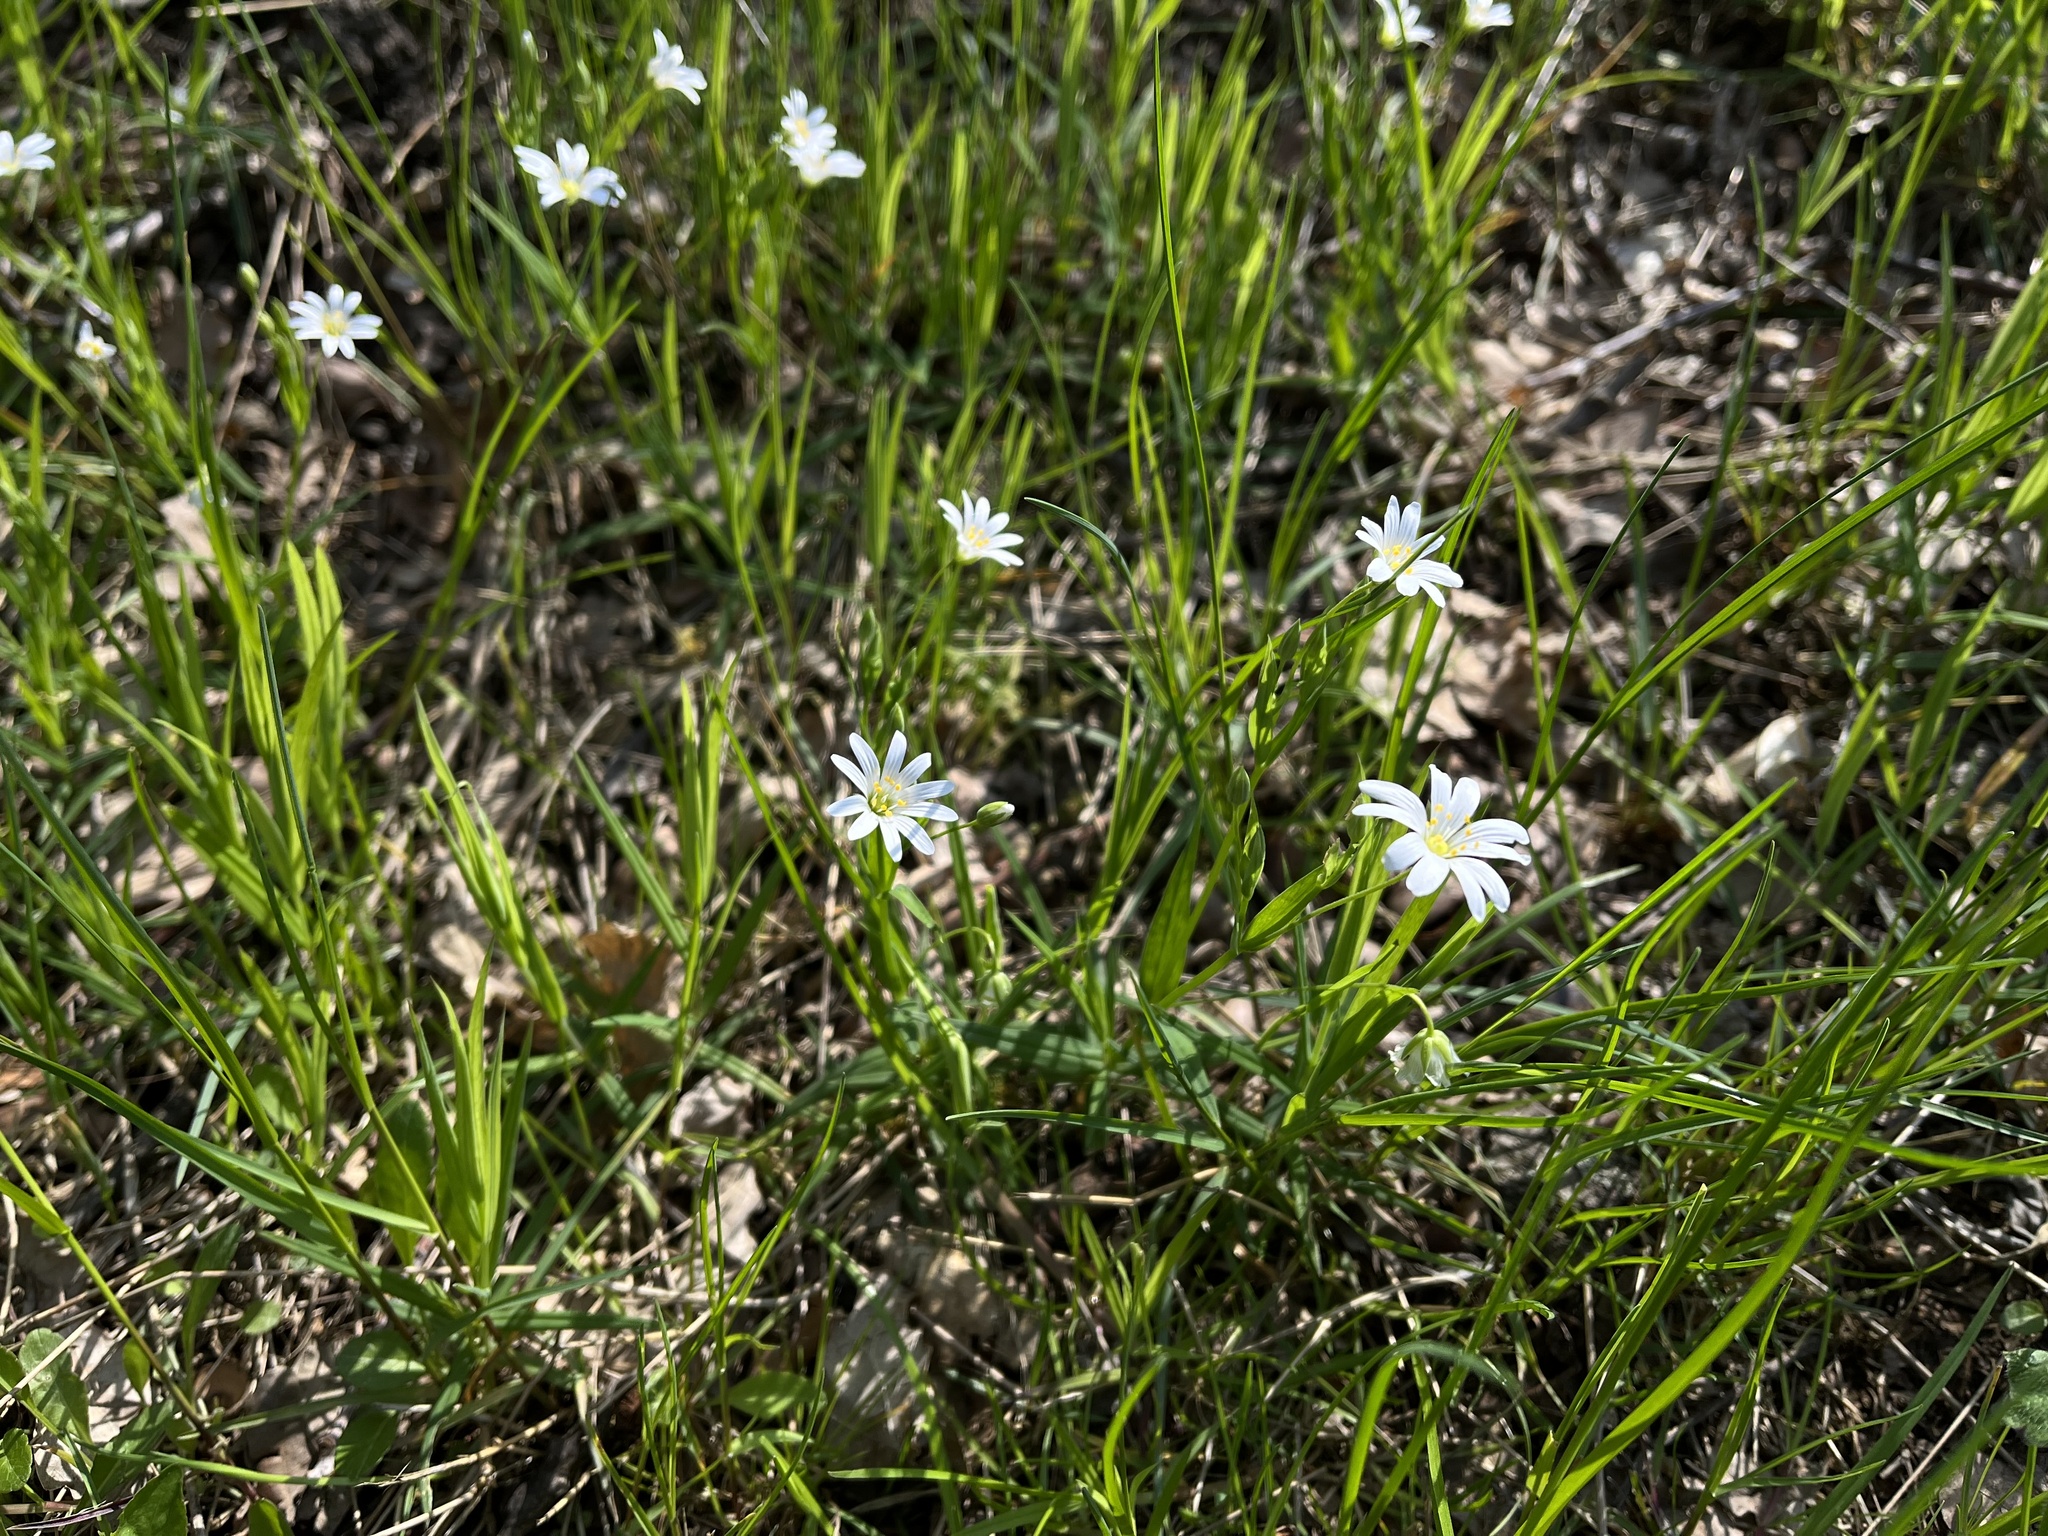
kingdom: Plantae
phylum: Tracheophyta
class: Magnoliopsida
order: Caryophyllales
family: Caryophyllaceae
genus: Rabelera
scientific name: Rabelera holostea
